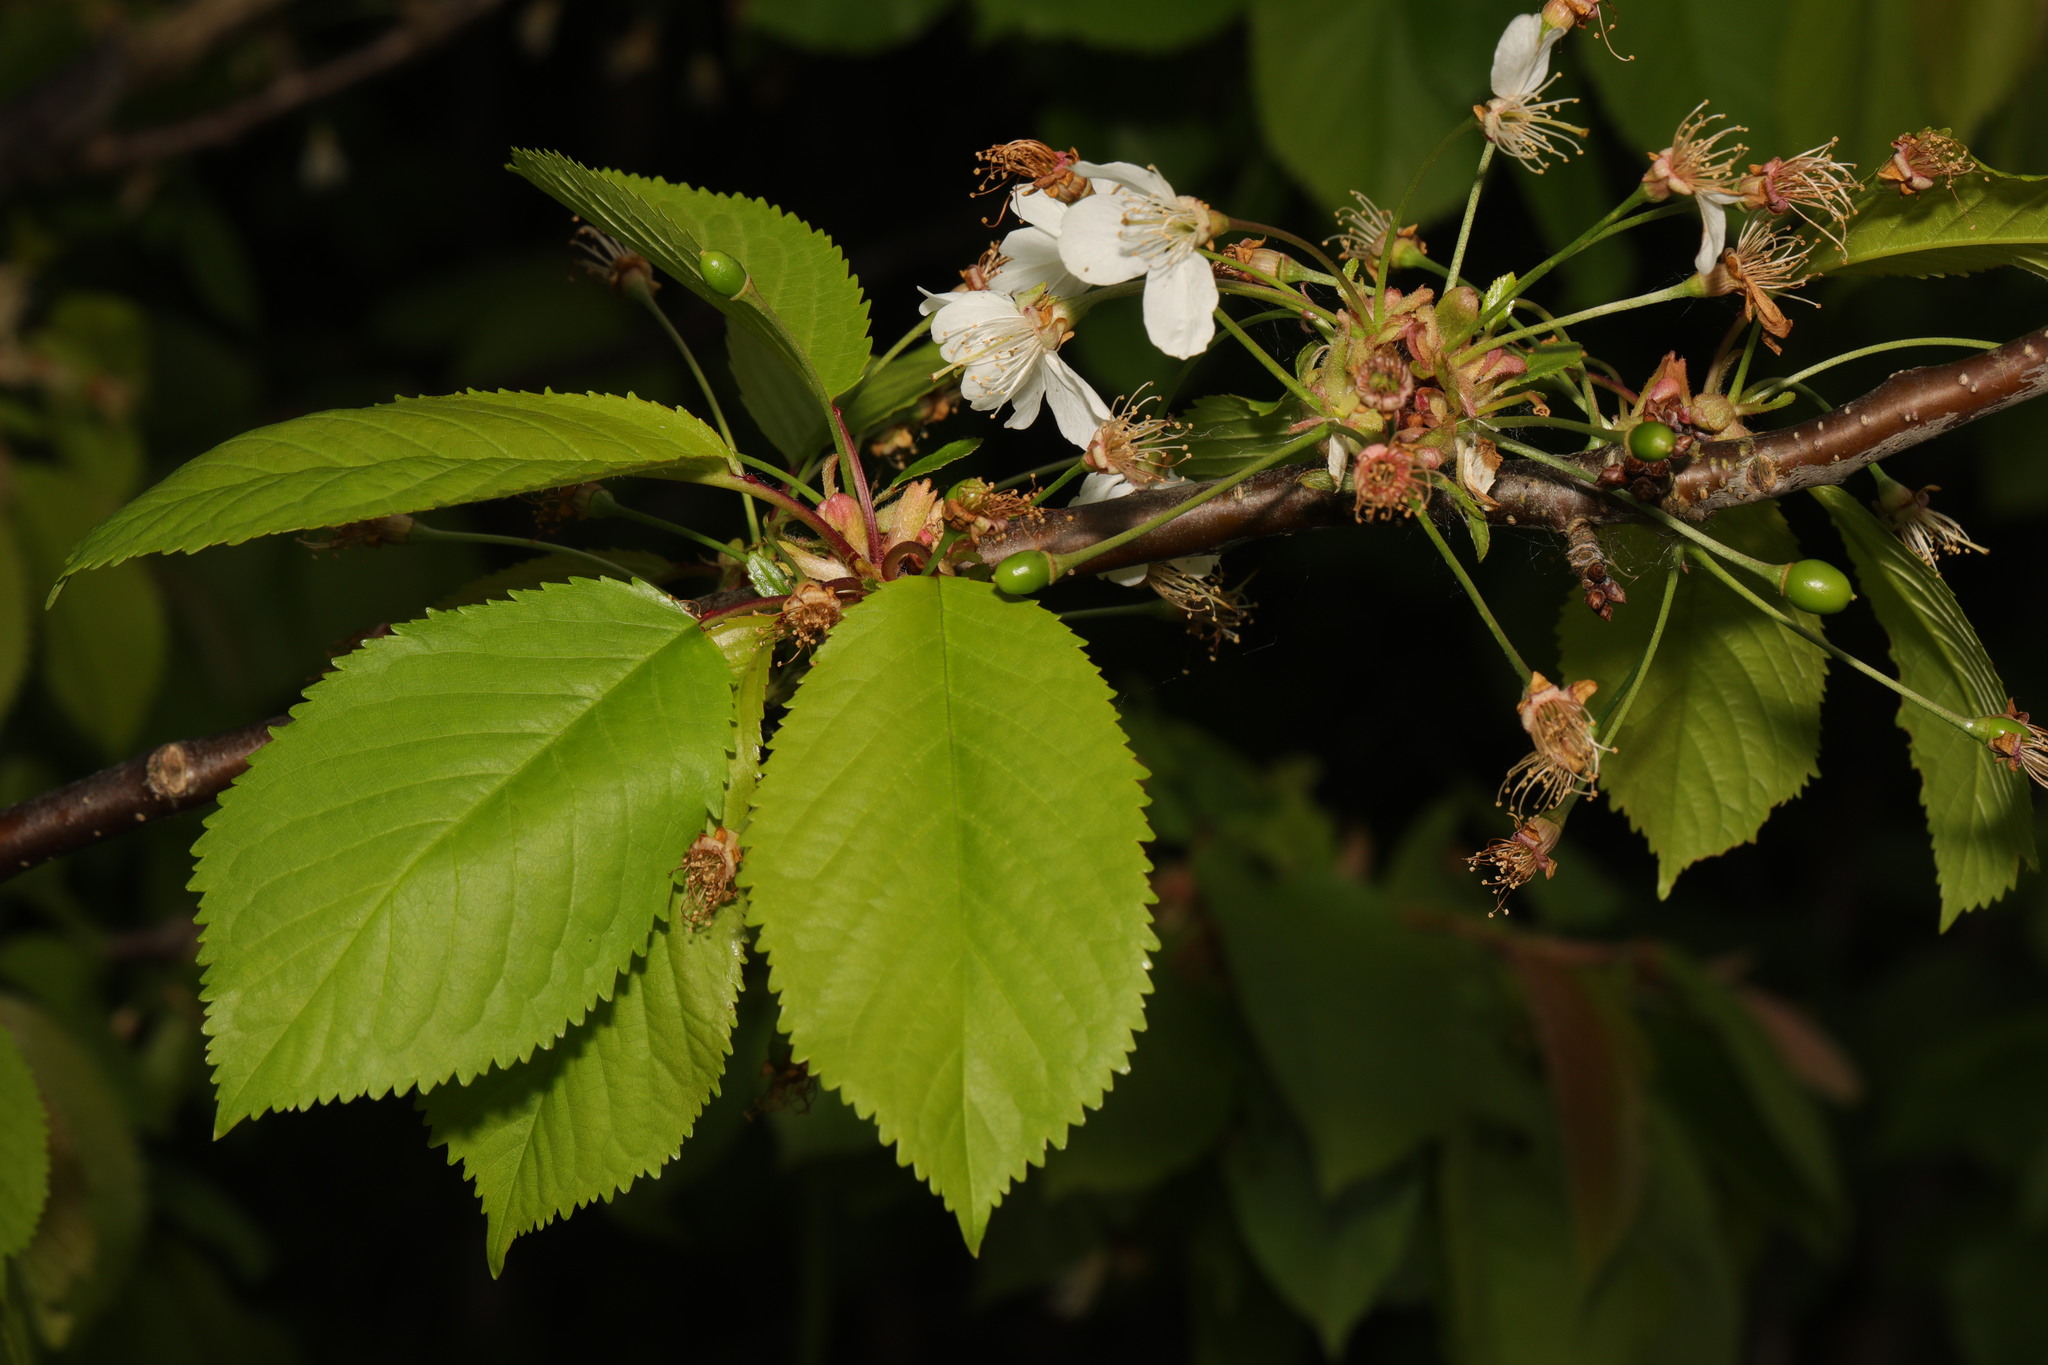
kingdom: Plantae
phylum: Tracheophyta
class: Magnoliopsida
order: Rosales
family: Rosaceae
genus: Prunus
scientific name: Prunus avium
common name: Sweet cherry
